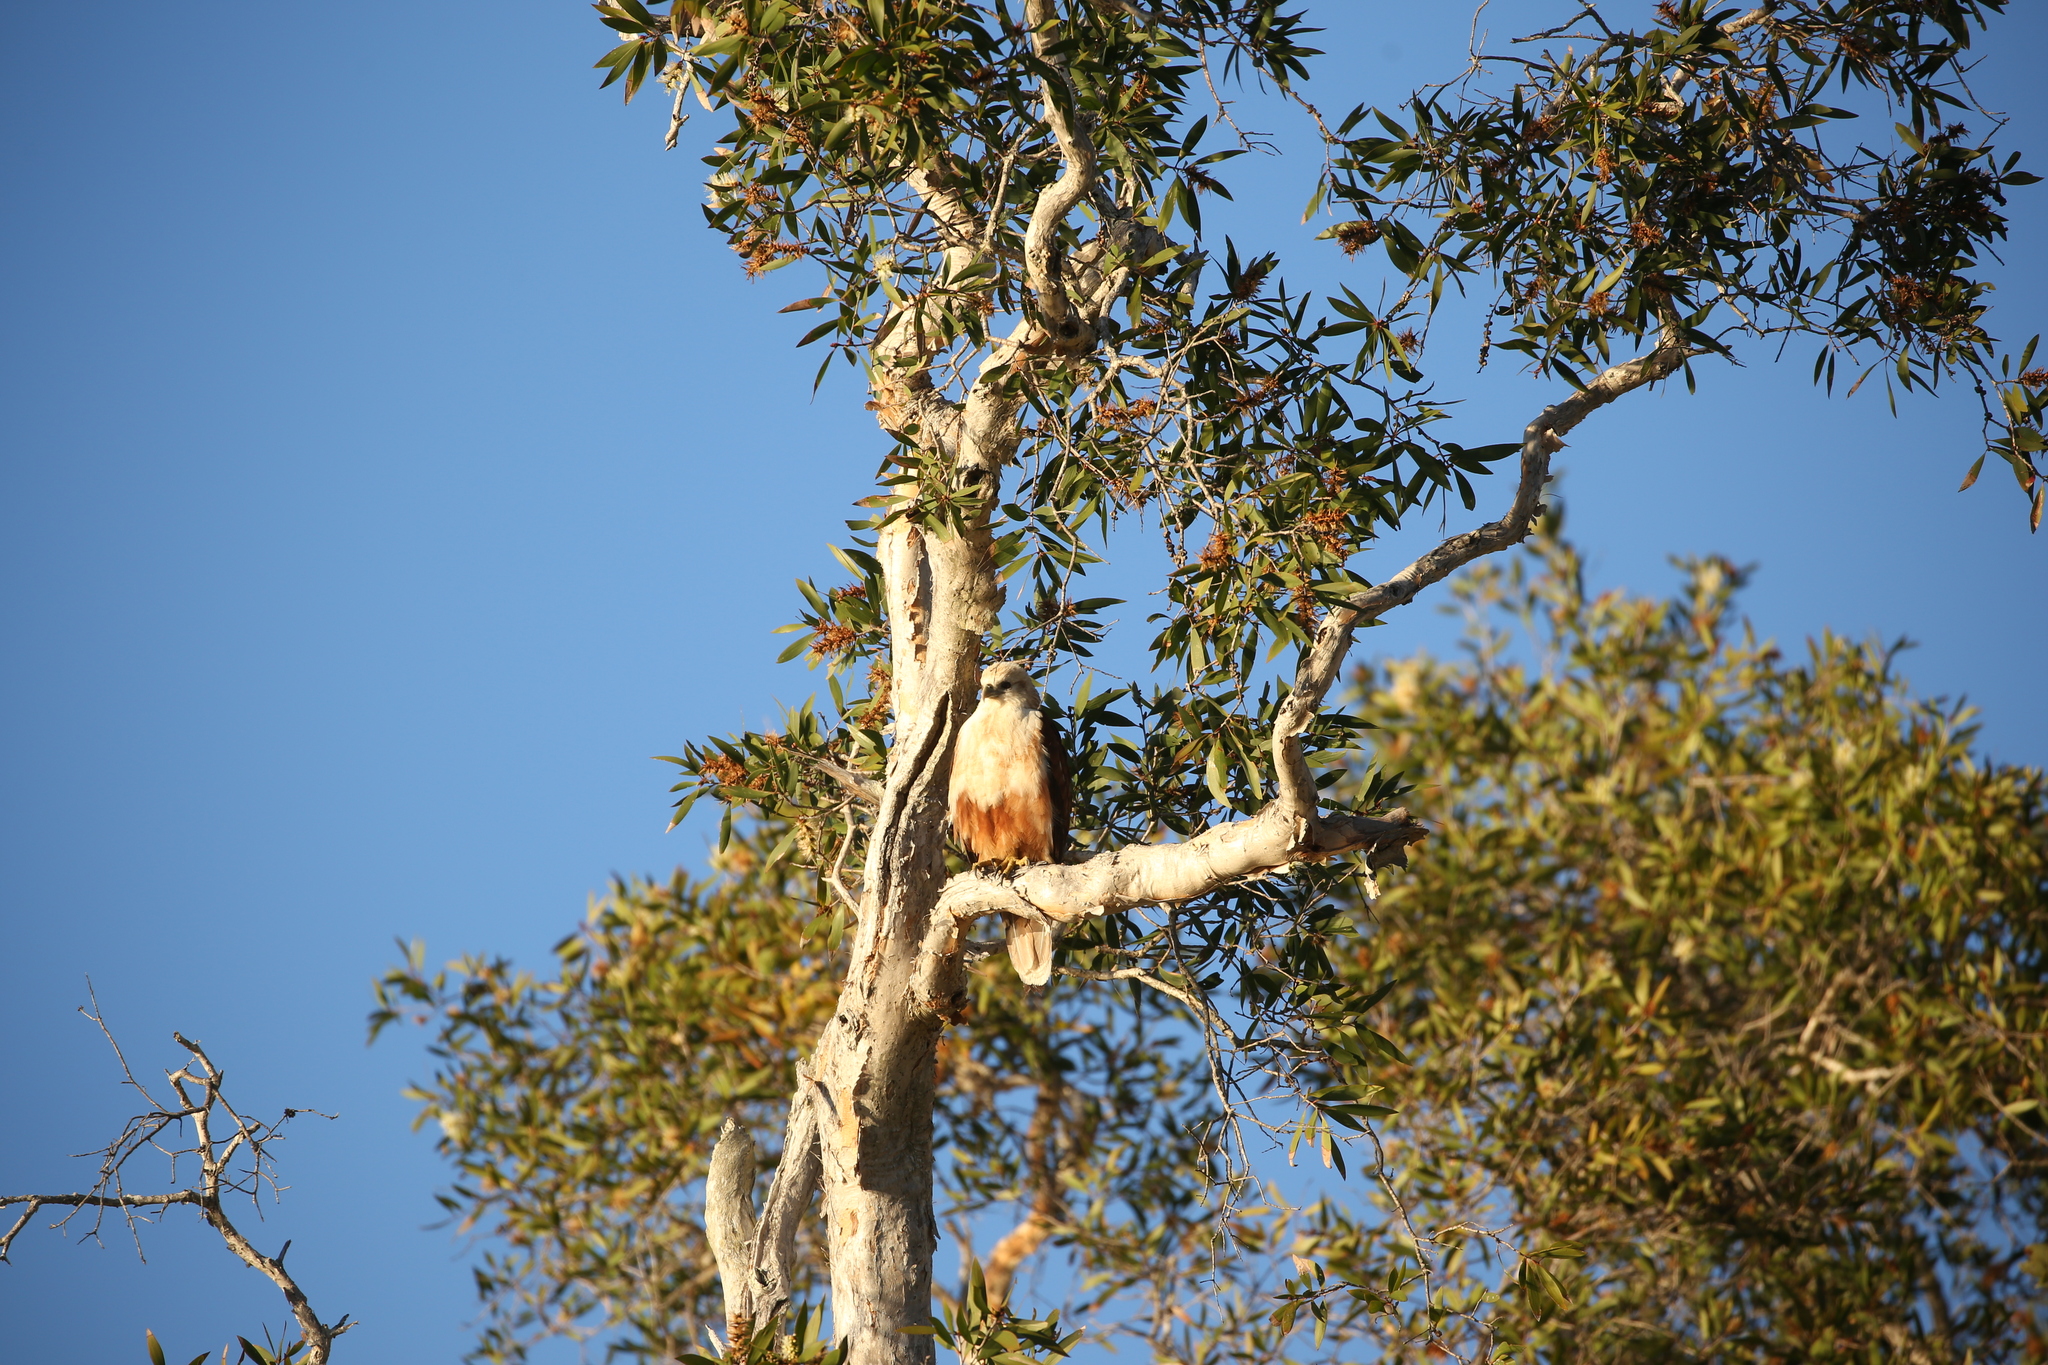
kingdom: Animalia
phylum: Chordata
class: Aves
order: Accipitriformes
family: Accipitridae
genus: Haliastur
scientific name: Haliastur sphenurus
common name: Whistling kite
